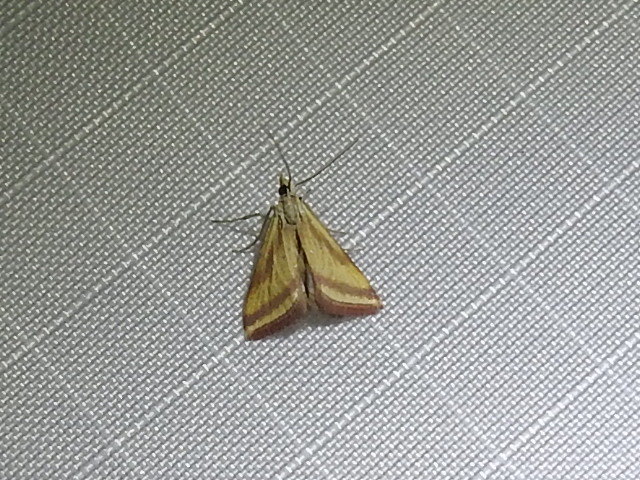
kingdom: Animalia
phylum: Arthropoda
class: Insecta
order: Lepidoptera
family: Crambidae
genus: Microtheoris
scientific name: Microtheoris vibicalis
